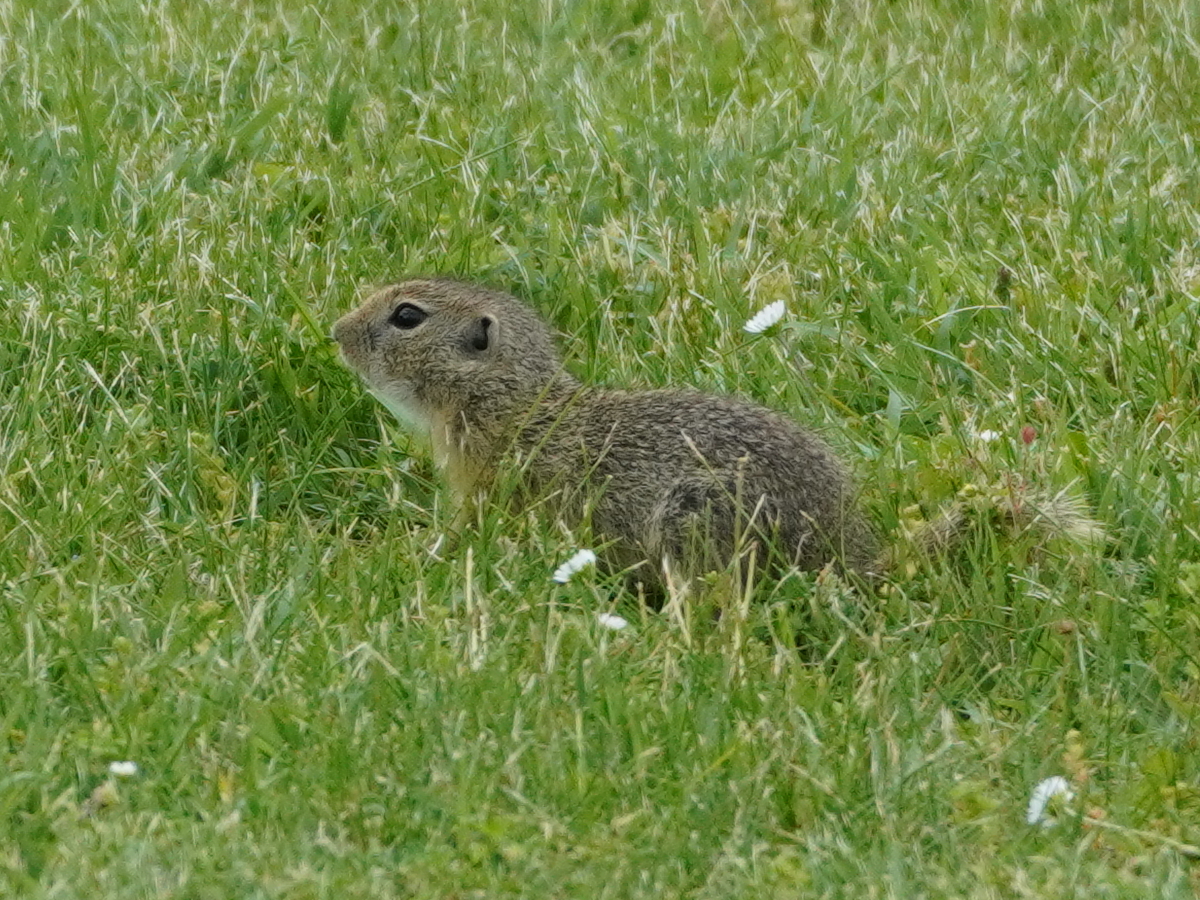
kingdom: Animalia
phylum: Chordata
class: Mammalia
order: Rodentia
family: Sciuridae
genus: Spermophilus
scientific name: Spermophilus citellus
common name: European ground squirrel
